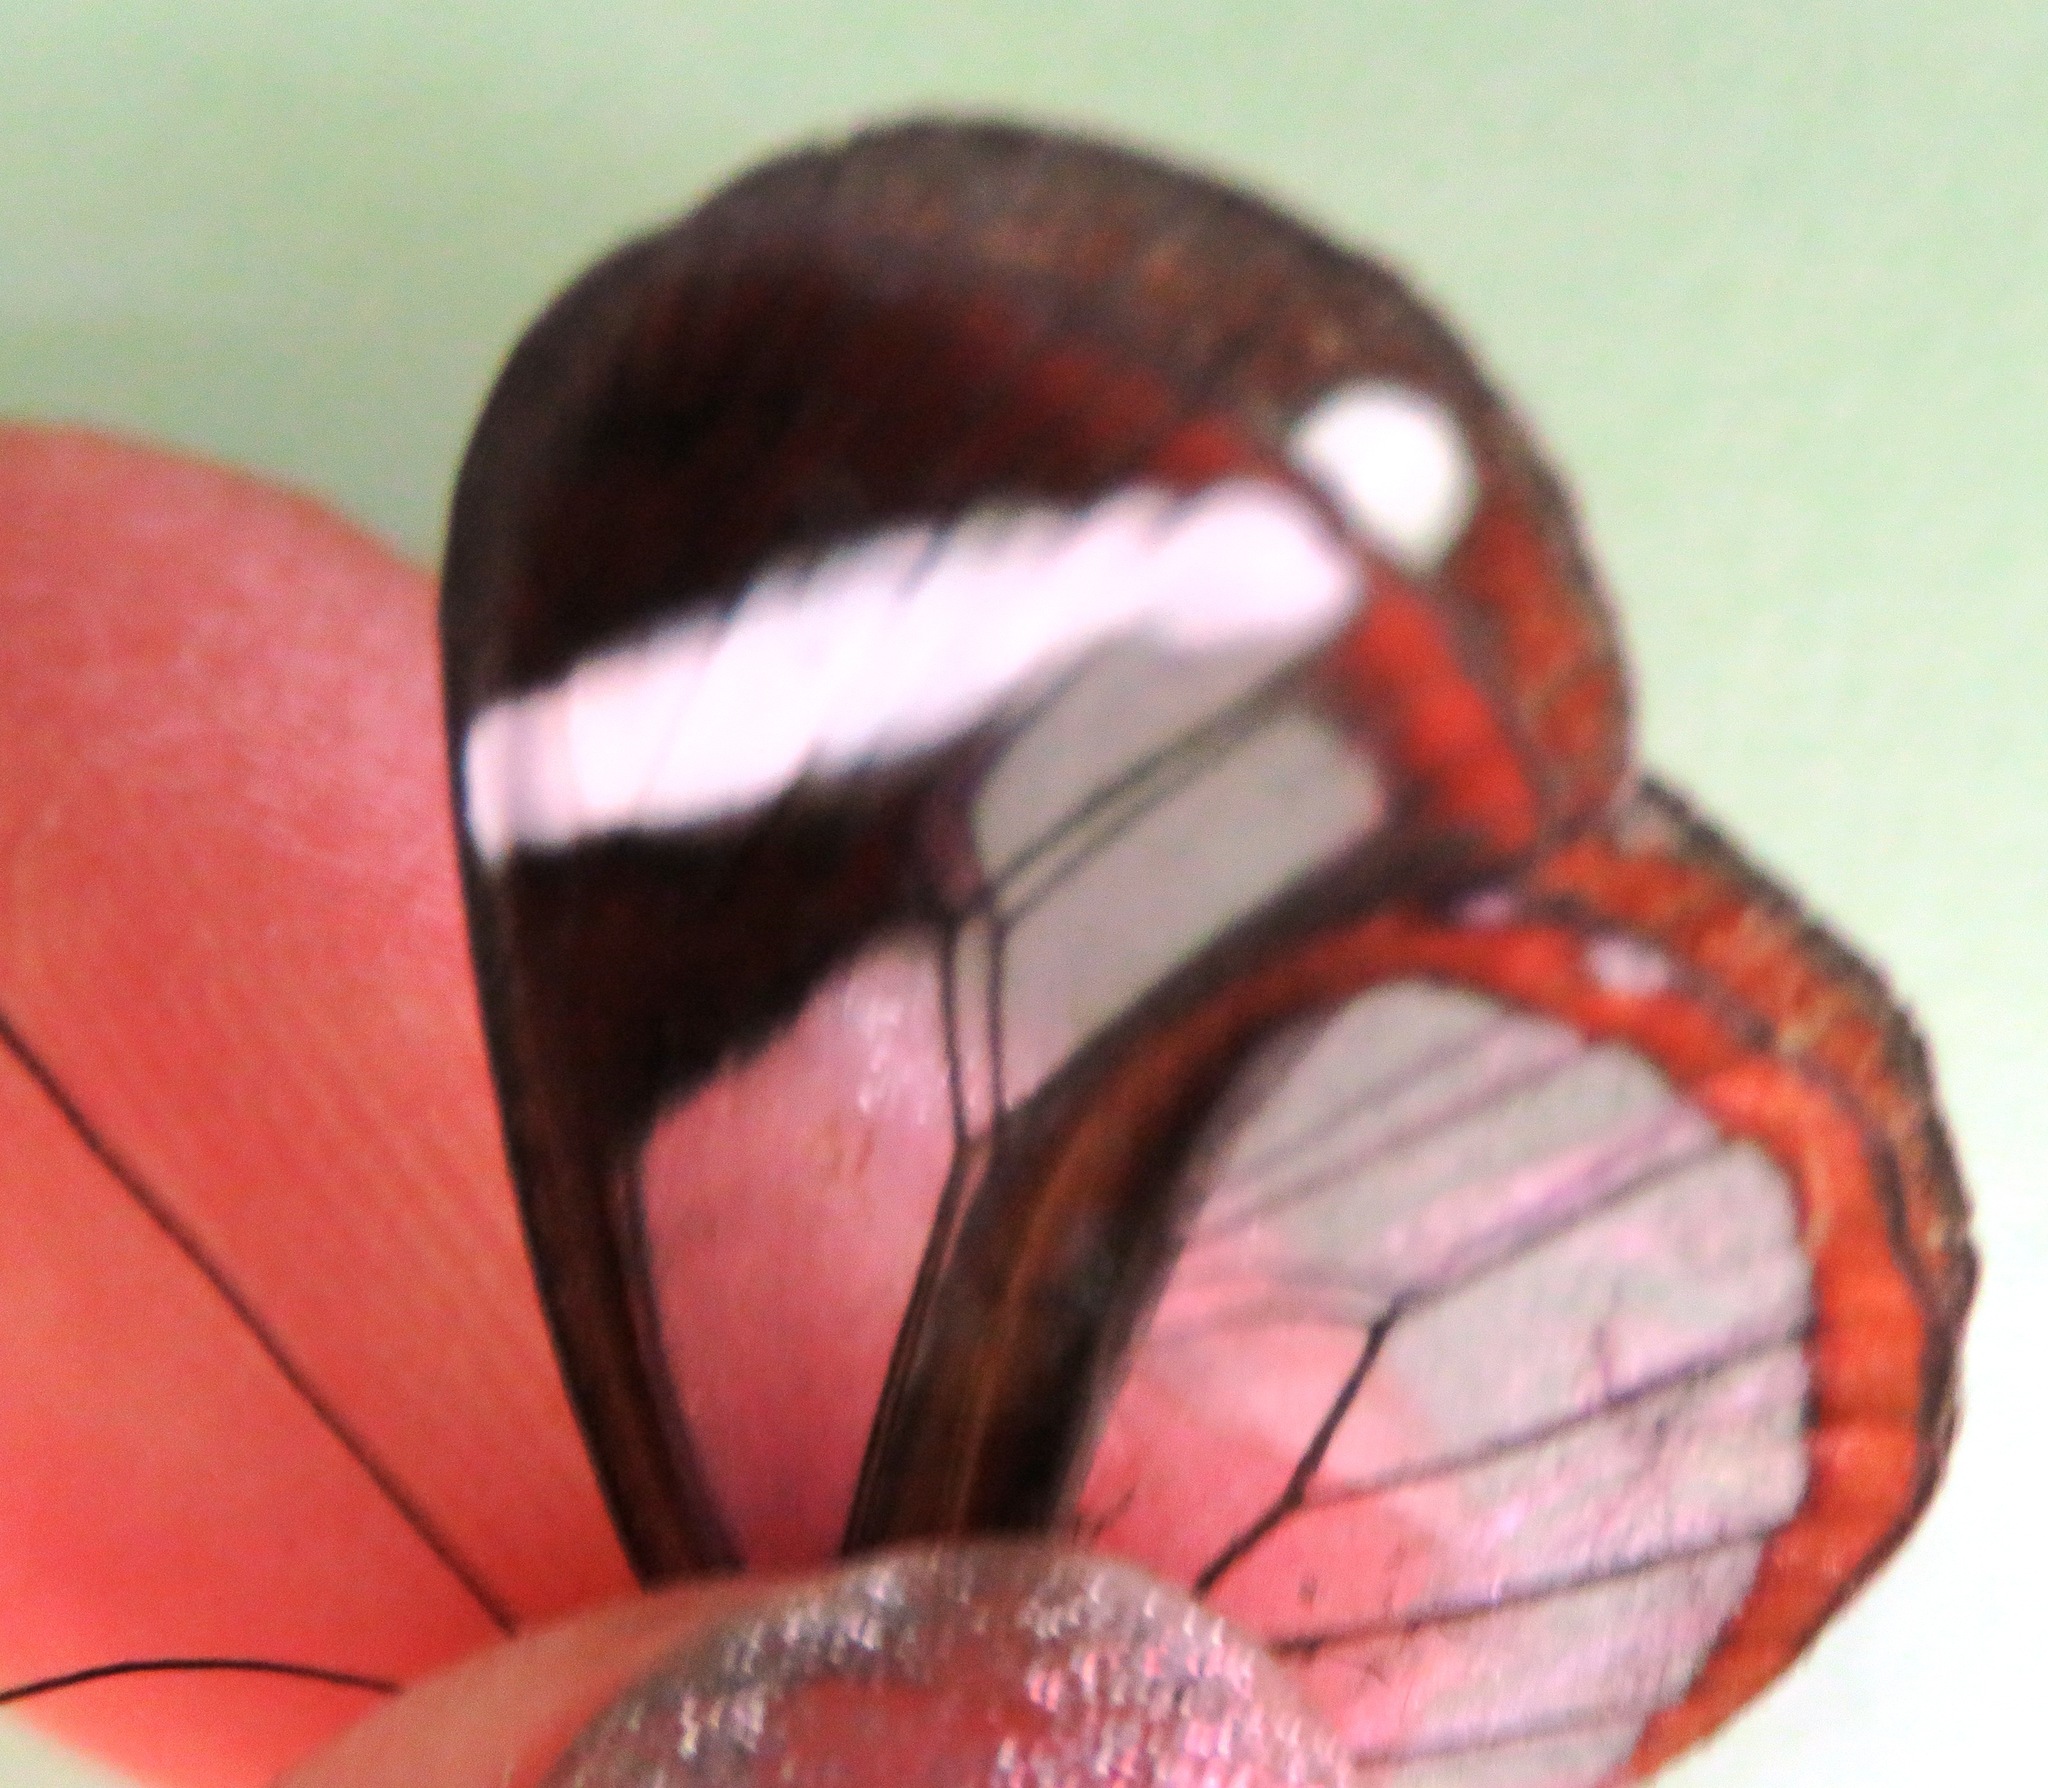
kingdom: Animalia
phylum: Arthropoda
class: Insecta
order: Lepidoptera
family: Nymphalidae
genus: Oleria
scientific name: Oleria paula
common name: Paula's clearwing
